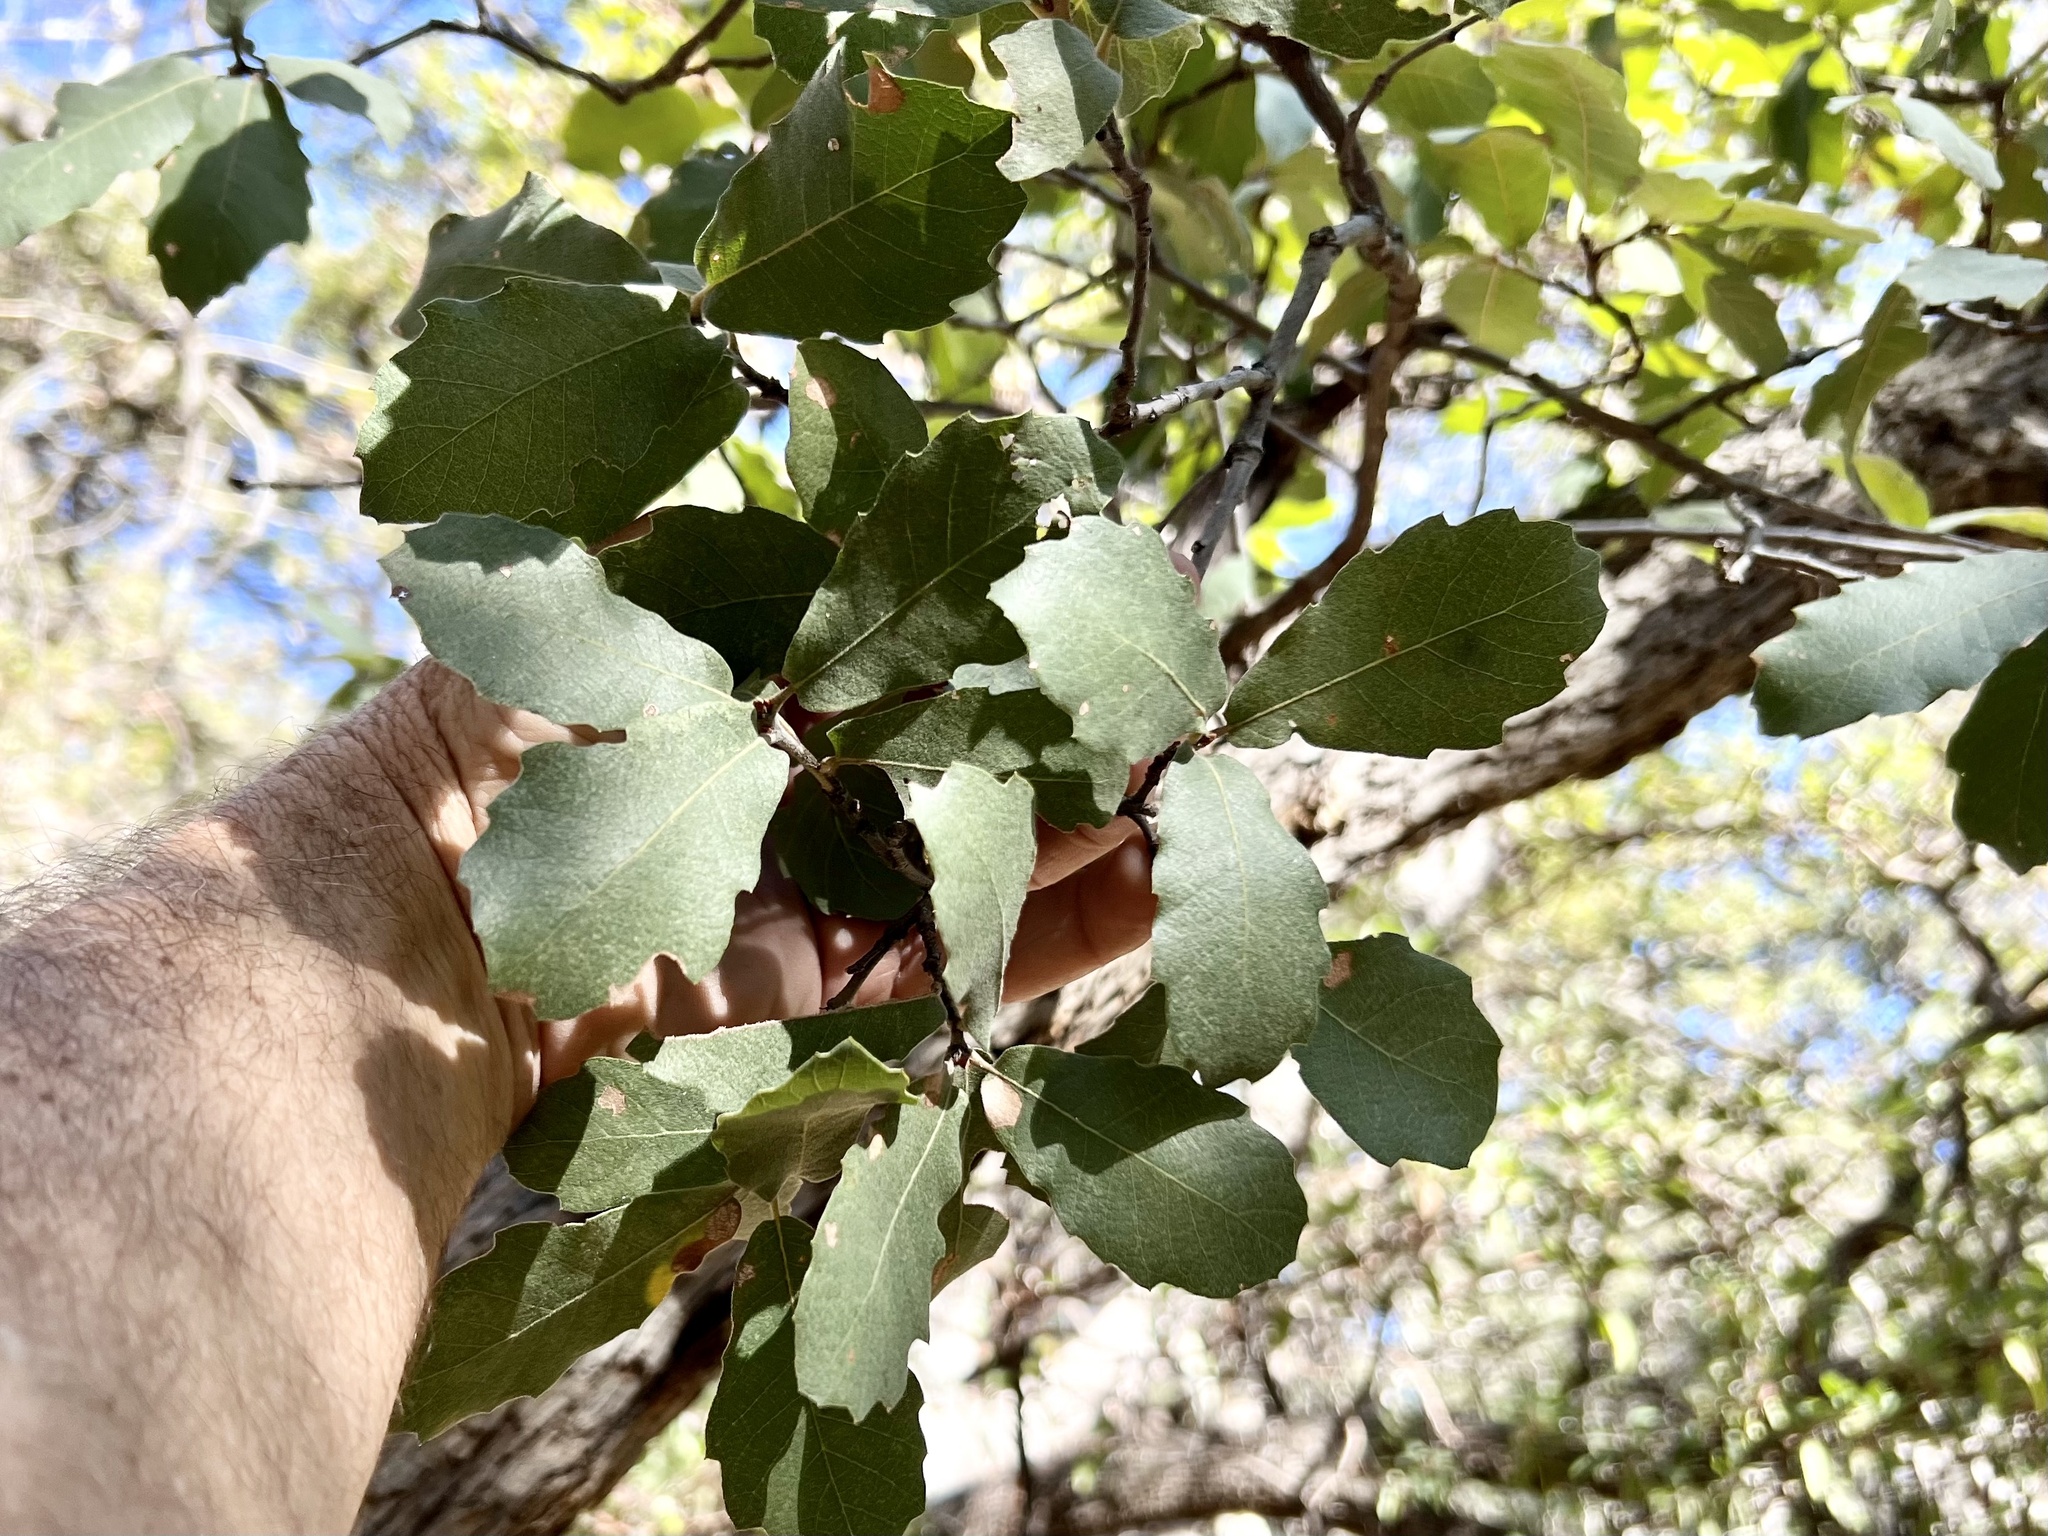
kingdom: Plantae
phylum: Tracheophyta
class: Magnoliopsida
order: Fagales
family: Fagaceae
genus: Quercus
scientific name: Quercus arizonica
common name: Arizona white oak
